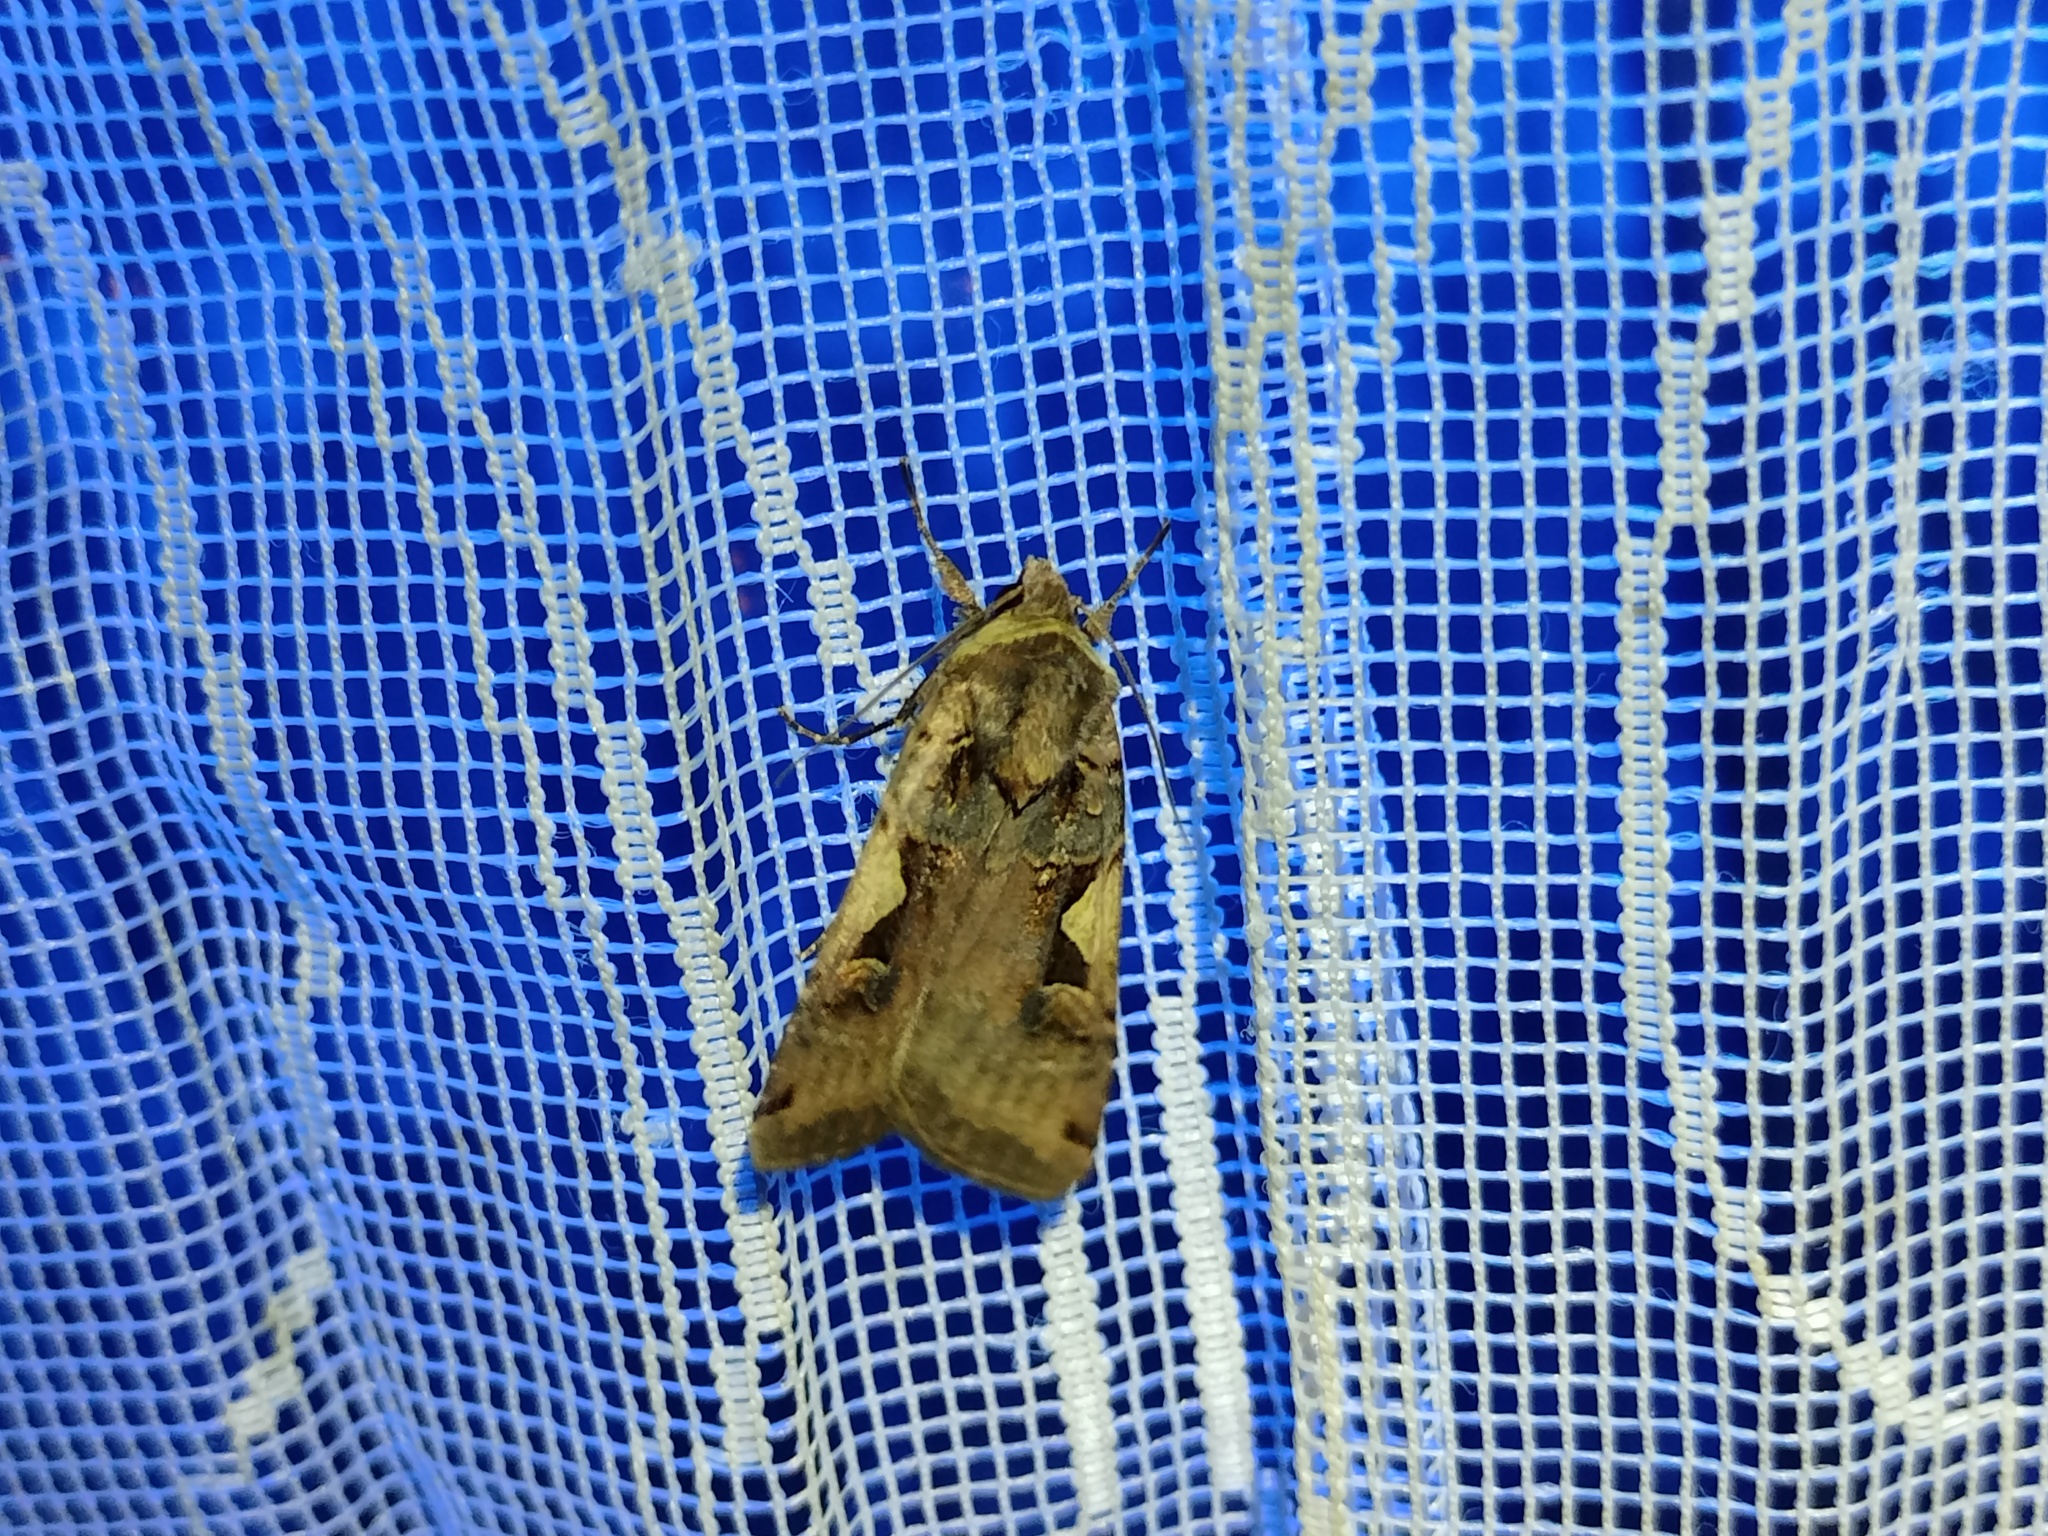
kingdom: Animalia
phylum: Arthropoda
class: Insecta
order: Lepidoptera
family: Noctuidae
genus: Xestia
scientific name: Xestia c-nigrum
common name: Setaceous hebrew character
